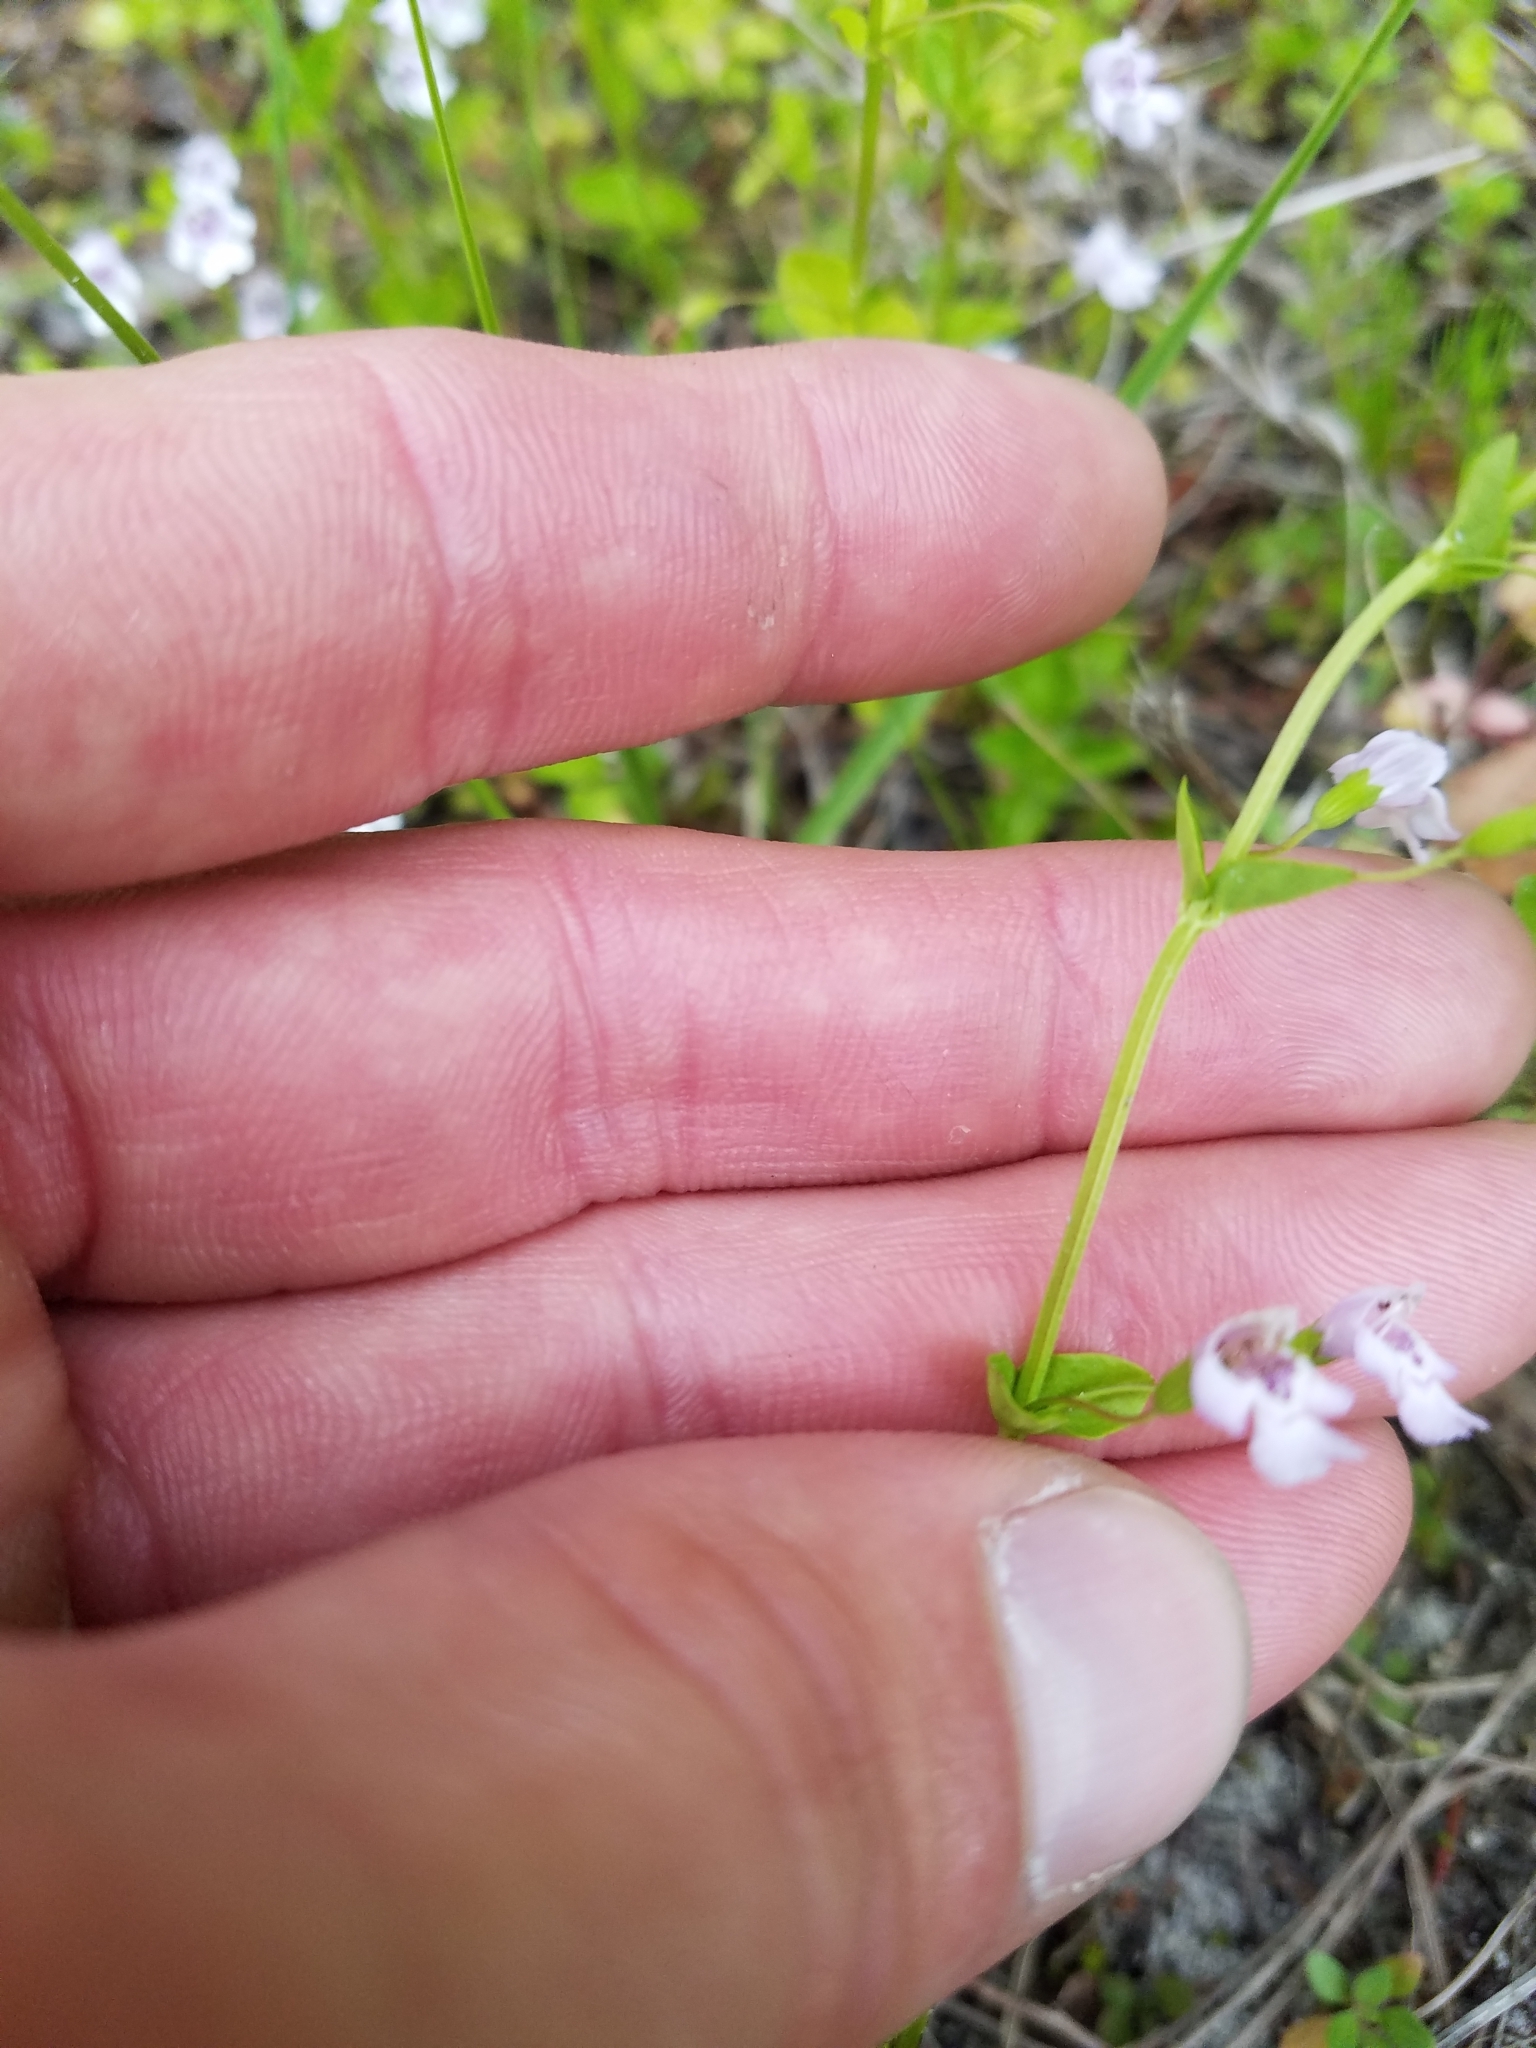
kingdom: Plantae
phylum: Tracheophyta
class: Magnoliopsida
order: Lamiales
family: Lamiaceae
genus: Clinopodium
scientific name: Clinopodium brownei
